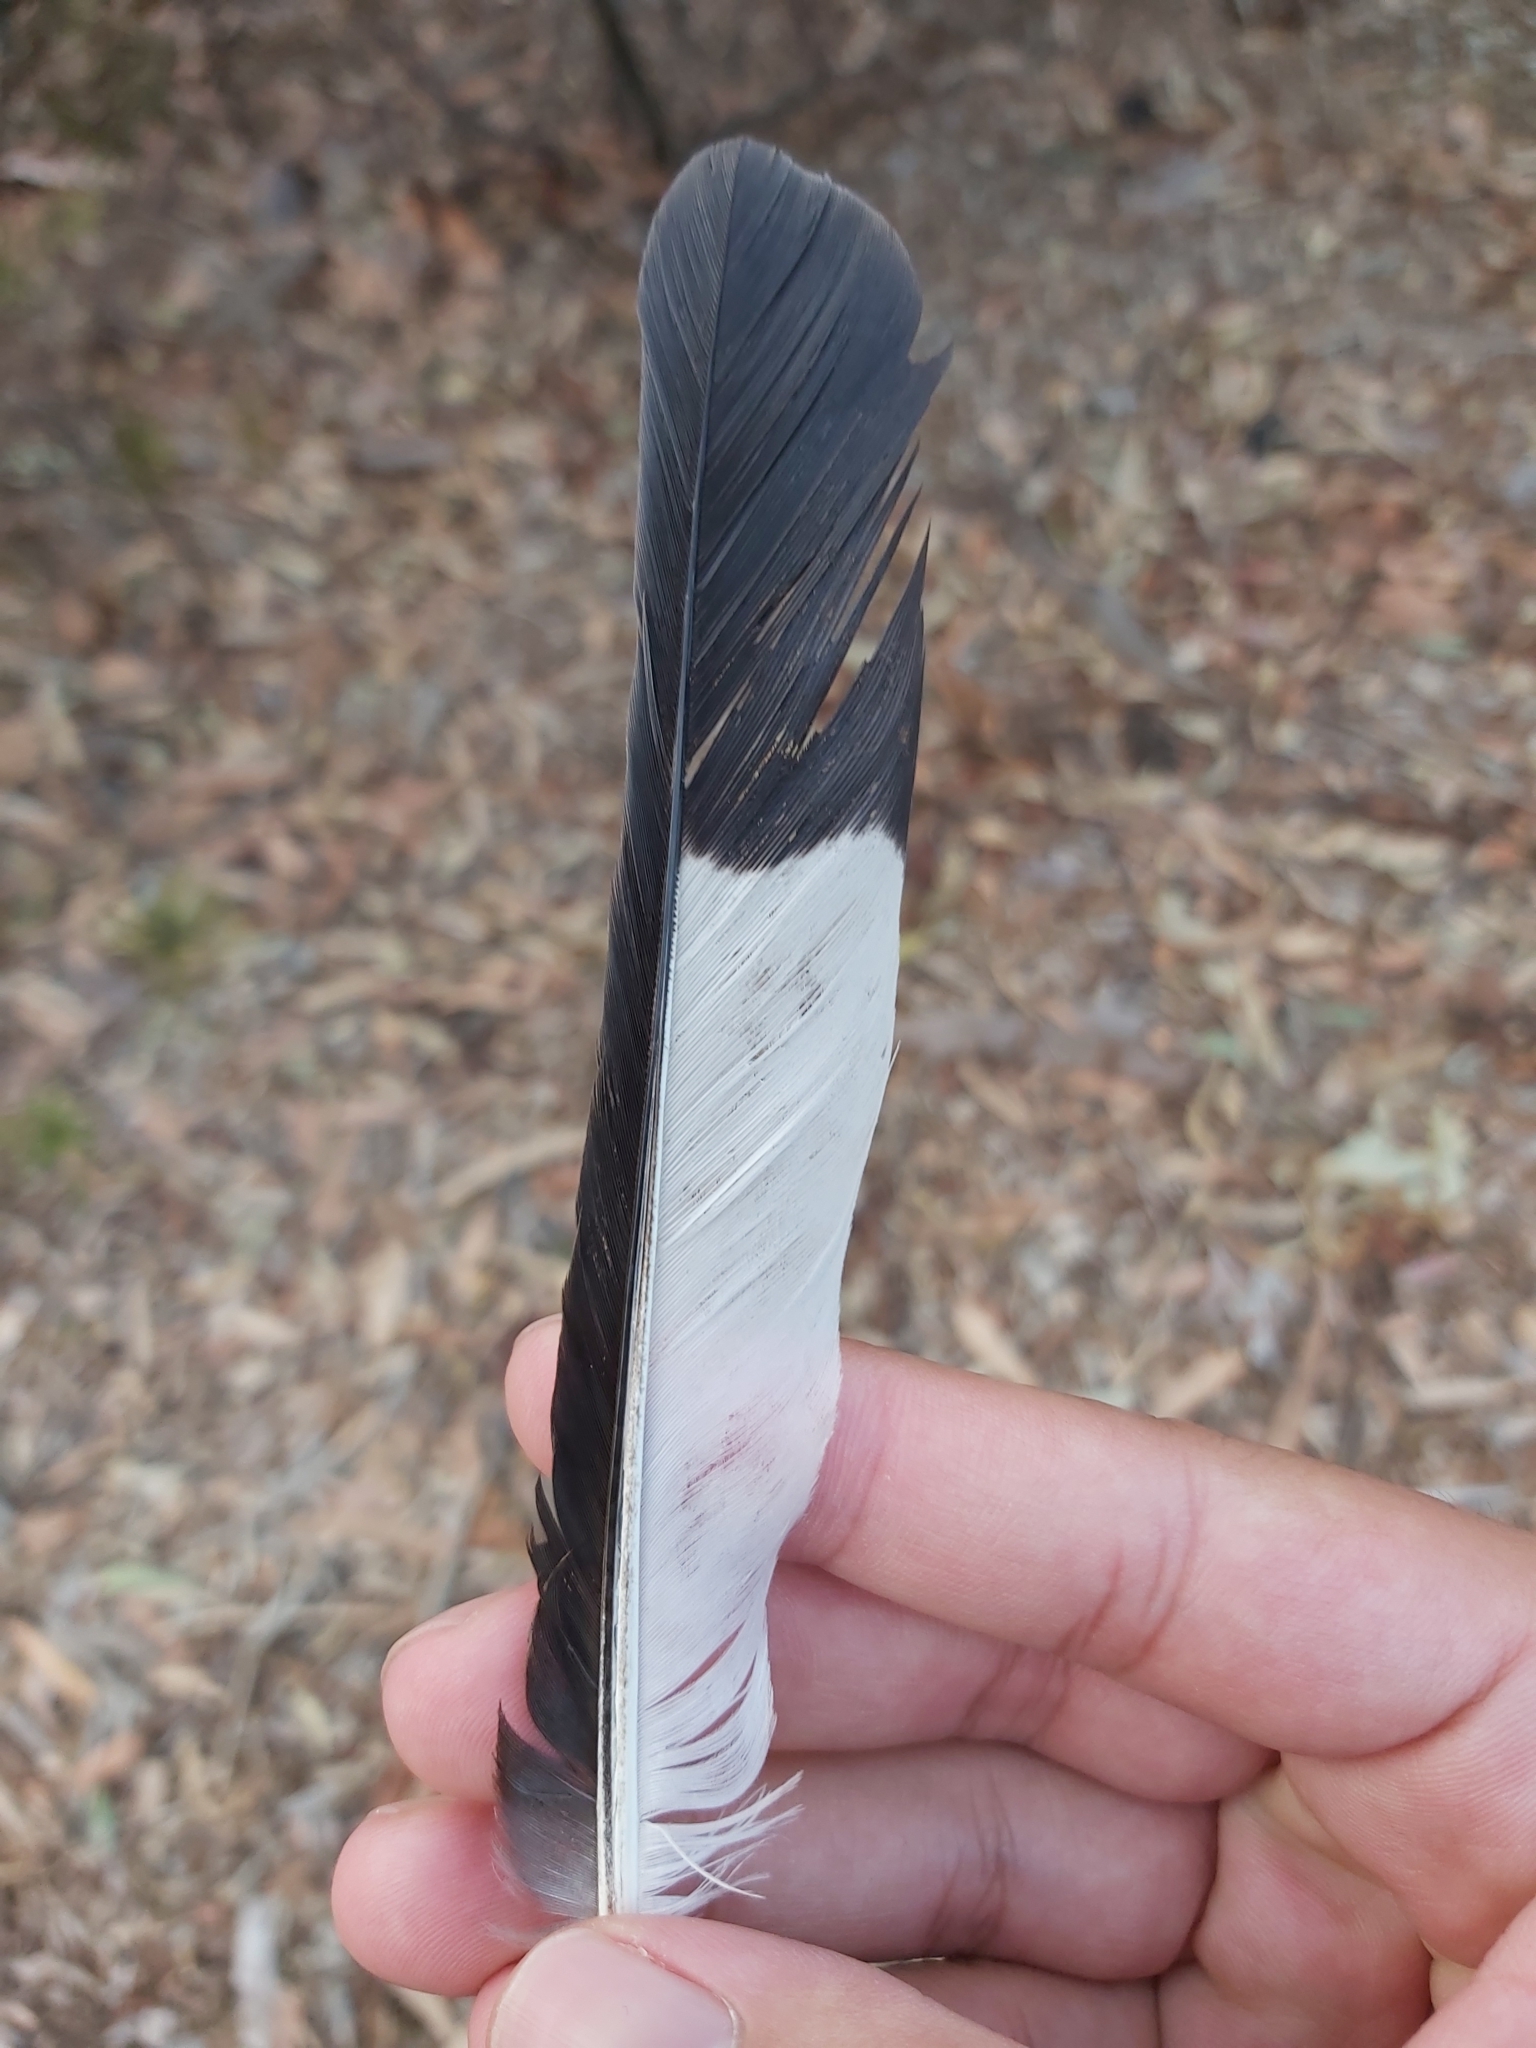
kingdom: Animalia
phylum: Chordata
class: Aves
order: Passeriformes
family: Cracticidae
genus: Gymnorhina
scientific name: Gymnorhina tibicen
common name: Australian magpie
